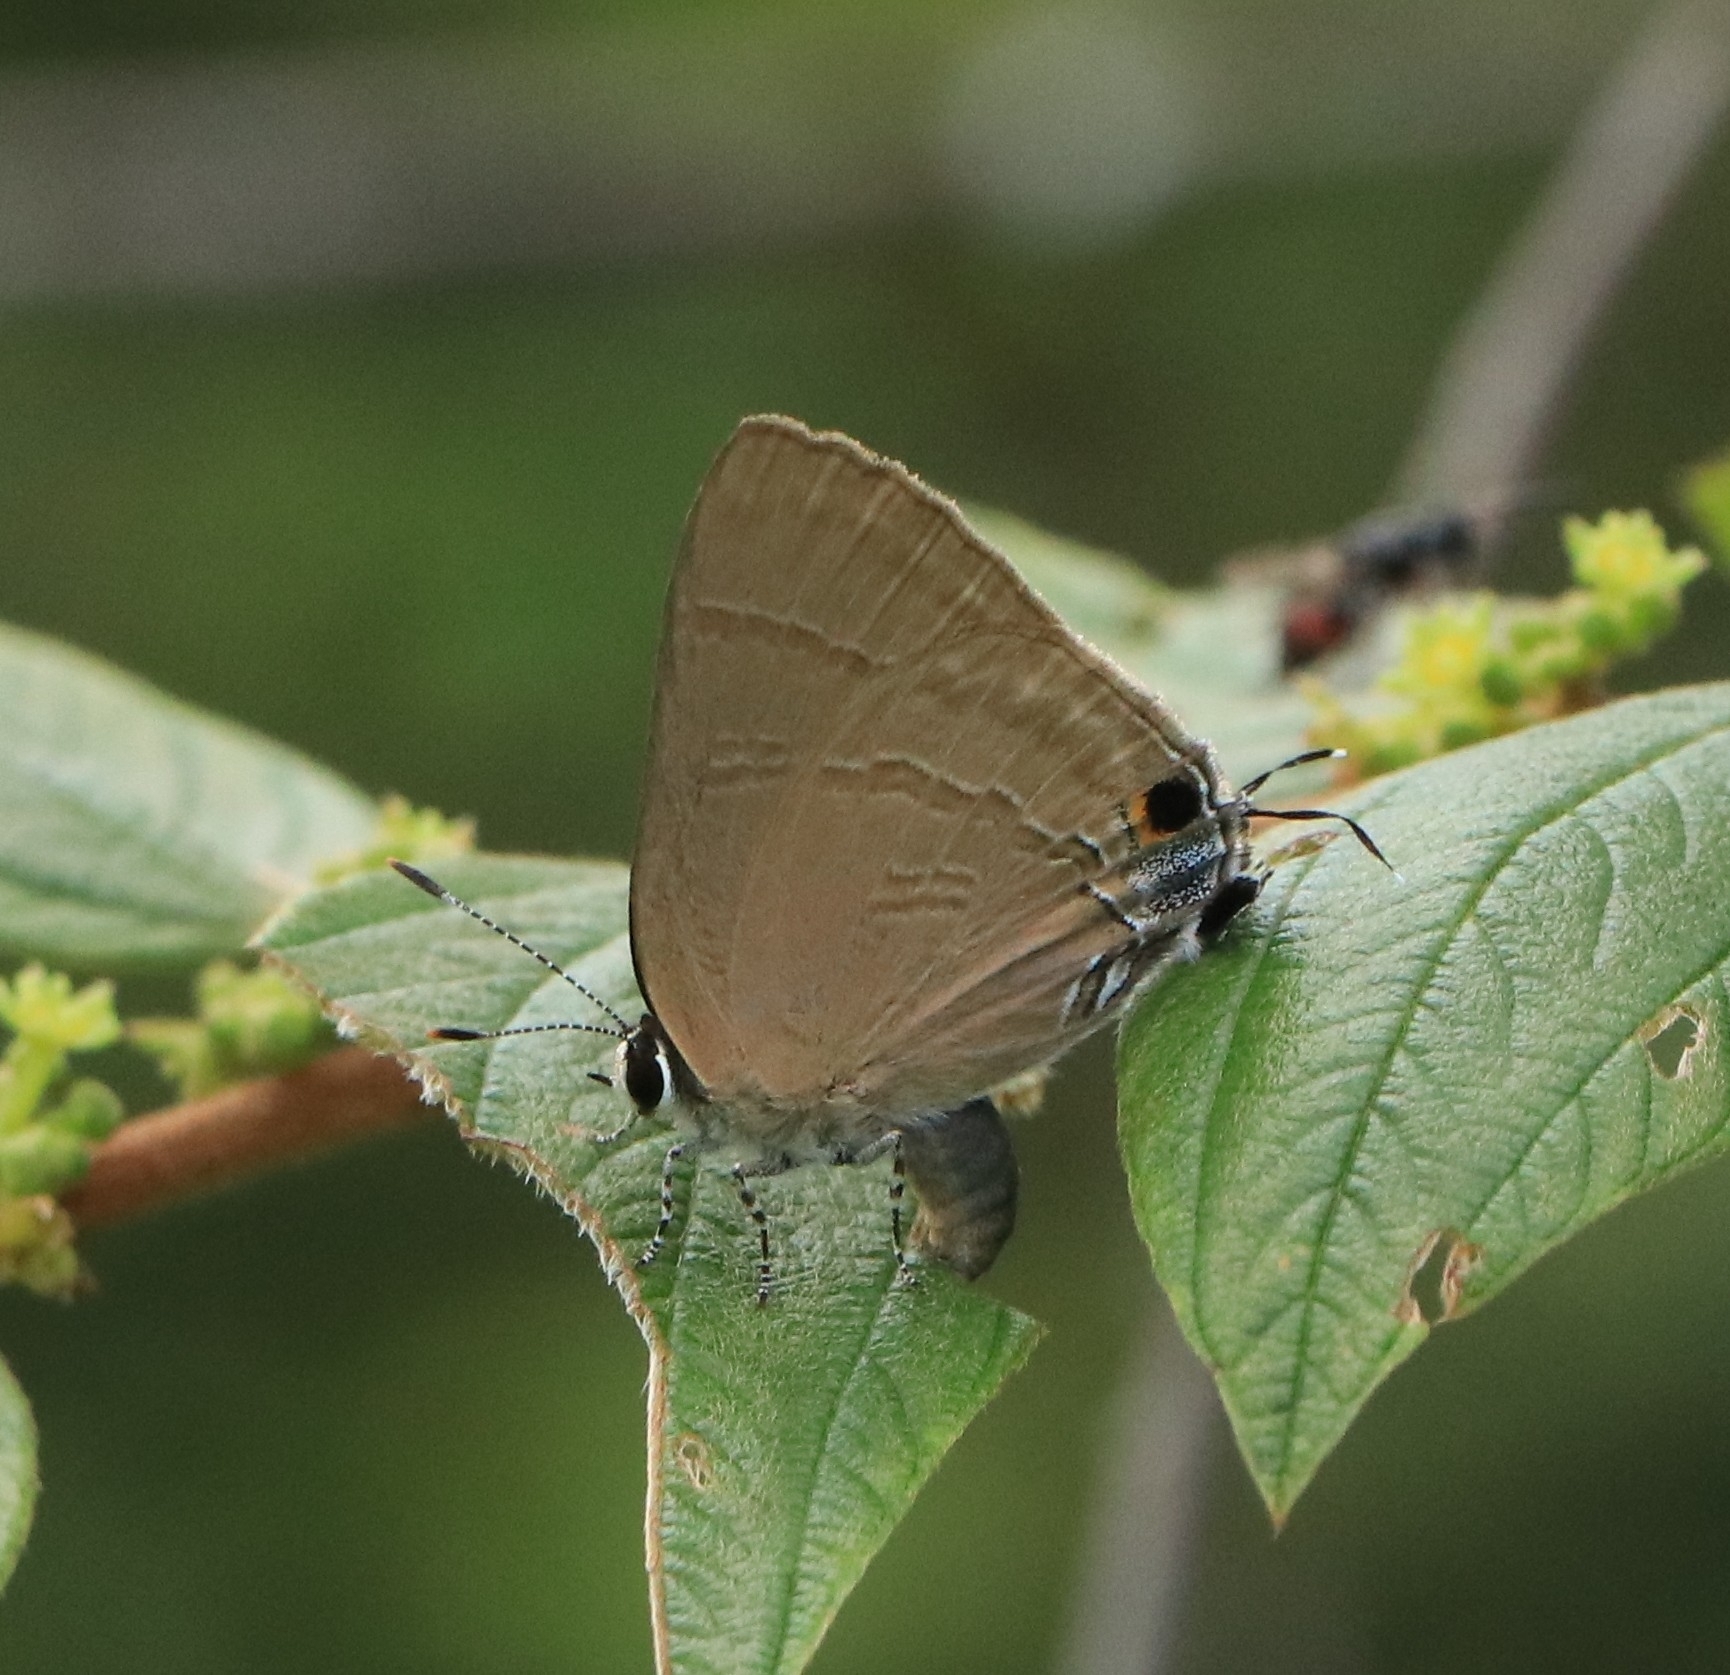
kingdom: Animalia
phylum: Arthropoda
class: Insecta
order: Lepidoptera
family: Lycaenidae
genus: Rapala
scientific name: Rapala manea
